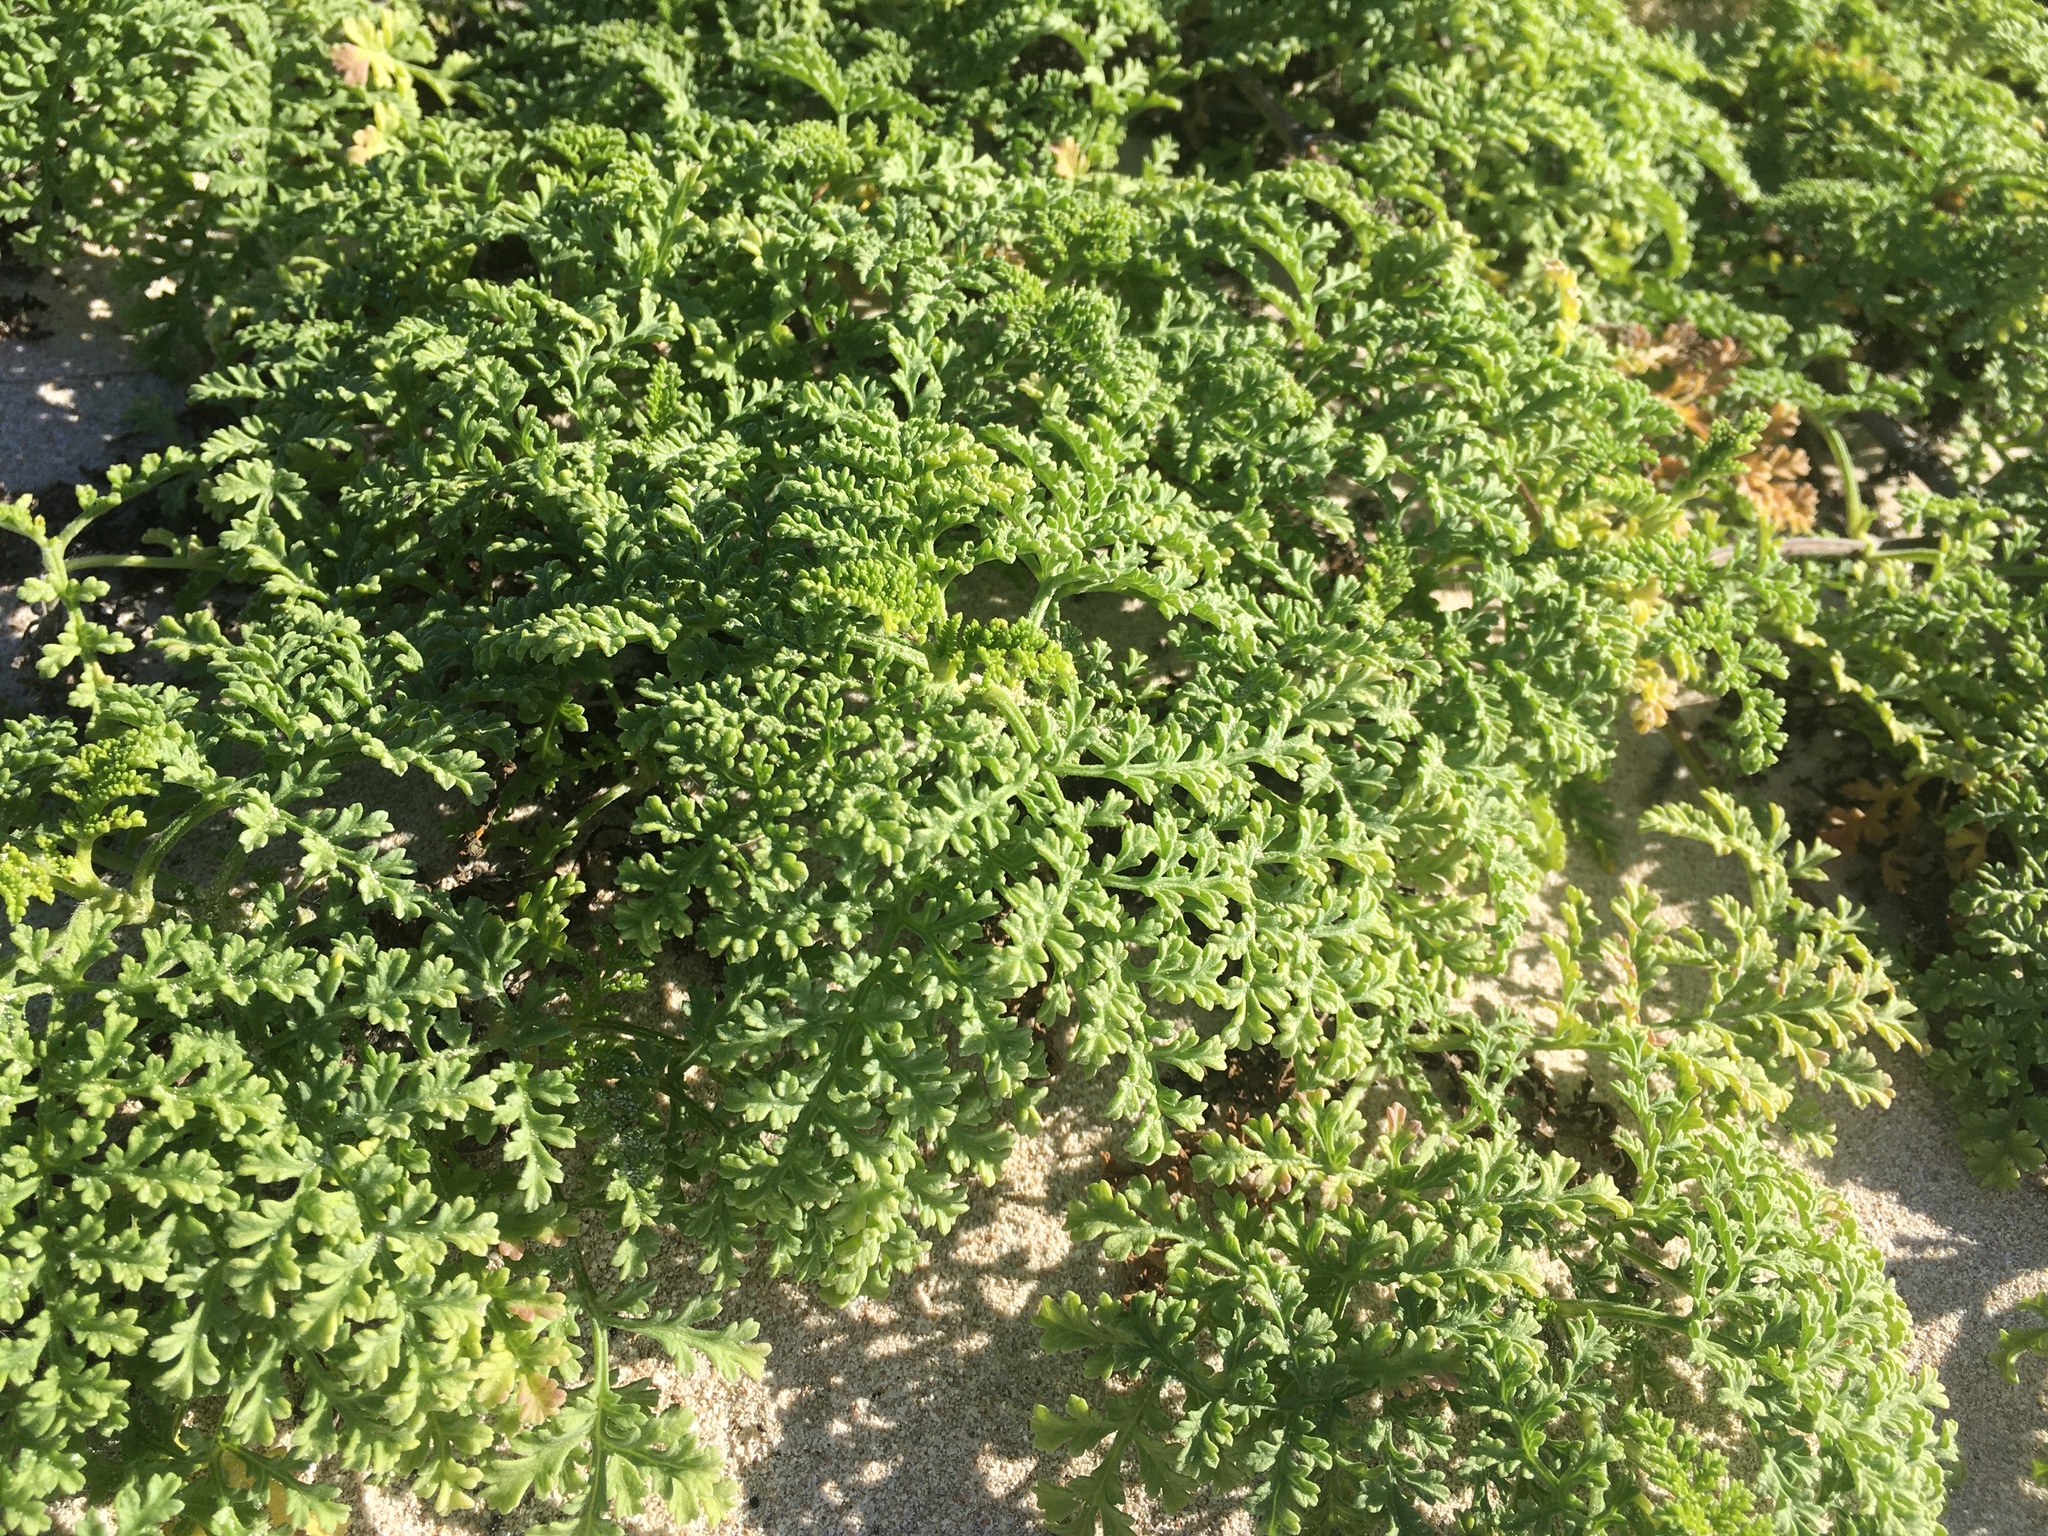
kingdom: Plantae
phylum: Tracheophyta
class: Magnoliopsida
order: Asterales
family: Asteraceae
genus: Ambrosia
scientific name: Ambrosia hispida
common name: Coastal ragweed
